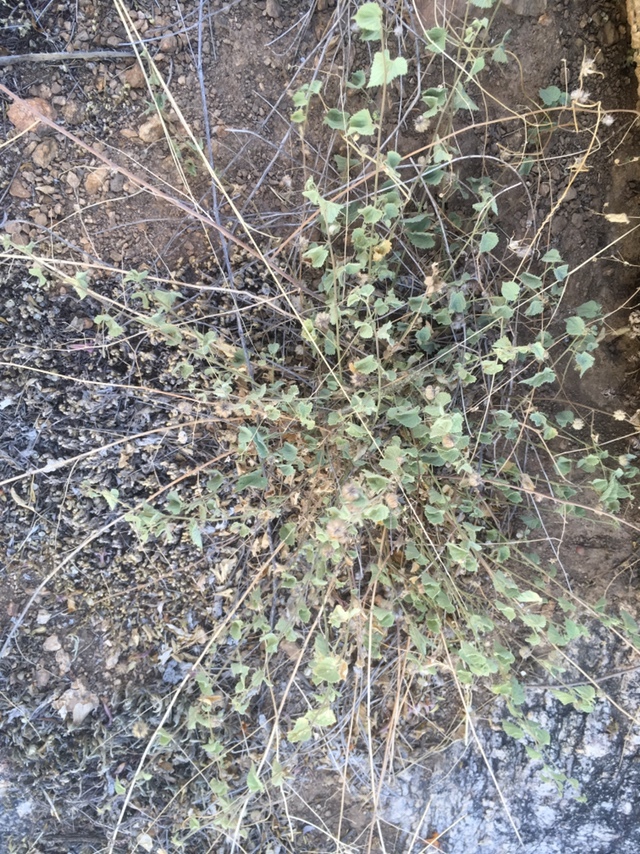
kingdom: Plantae
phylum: Tracheophyta
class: Magnoliopsida
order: Malvales
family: Malvaceae
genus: Herissantia
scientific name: Herissantia crispa
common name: Bladdermallow
